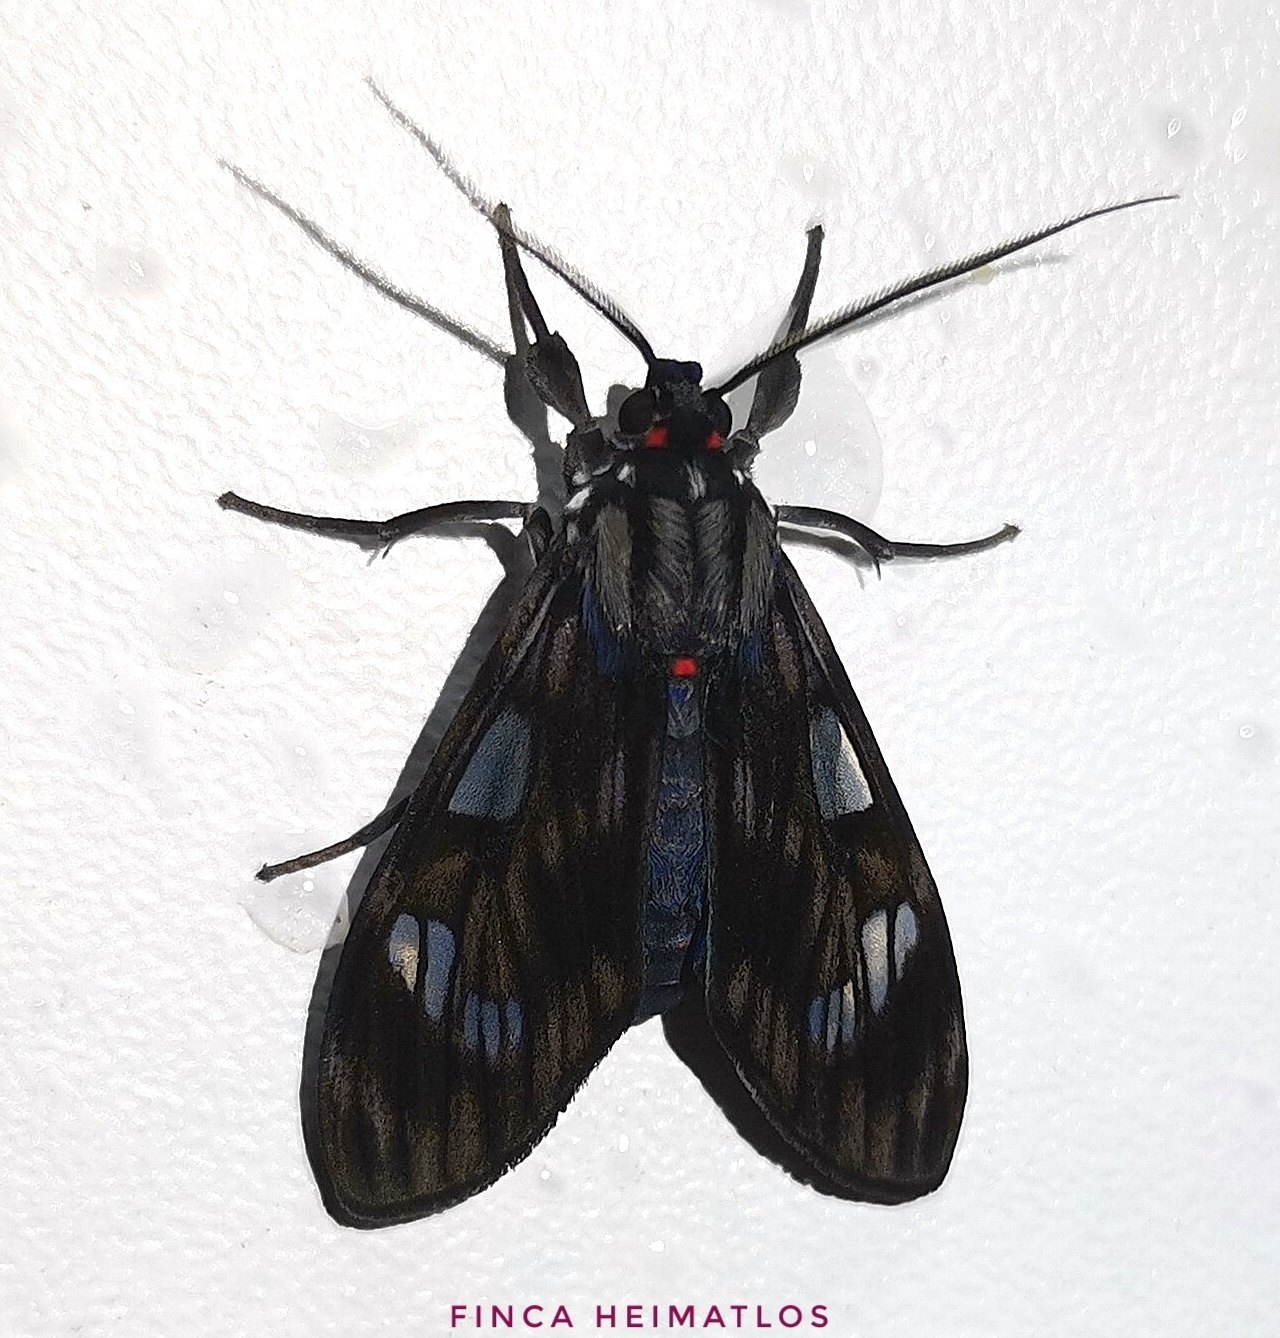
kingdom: Animalia
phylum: Arthropoda
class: Insecta
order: Lepidoptera
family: Erebidae
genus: Episcepsis
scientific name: Episcepsis
